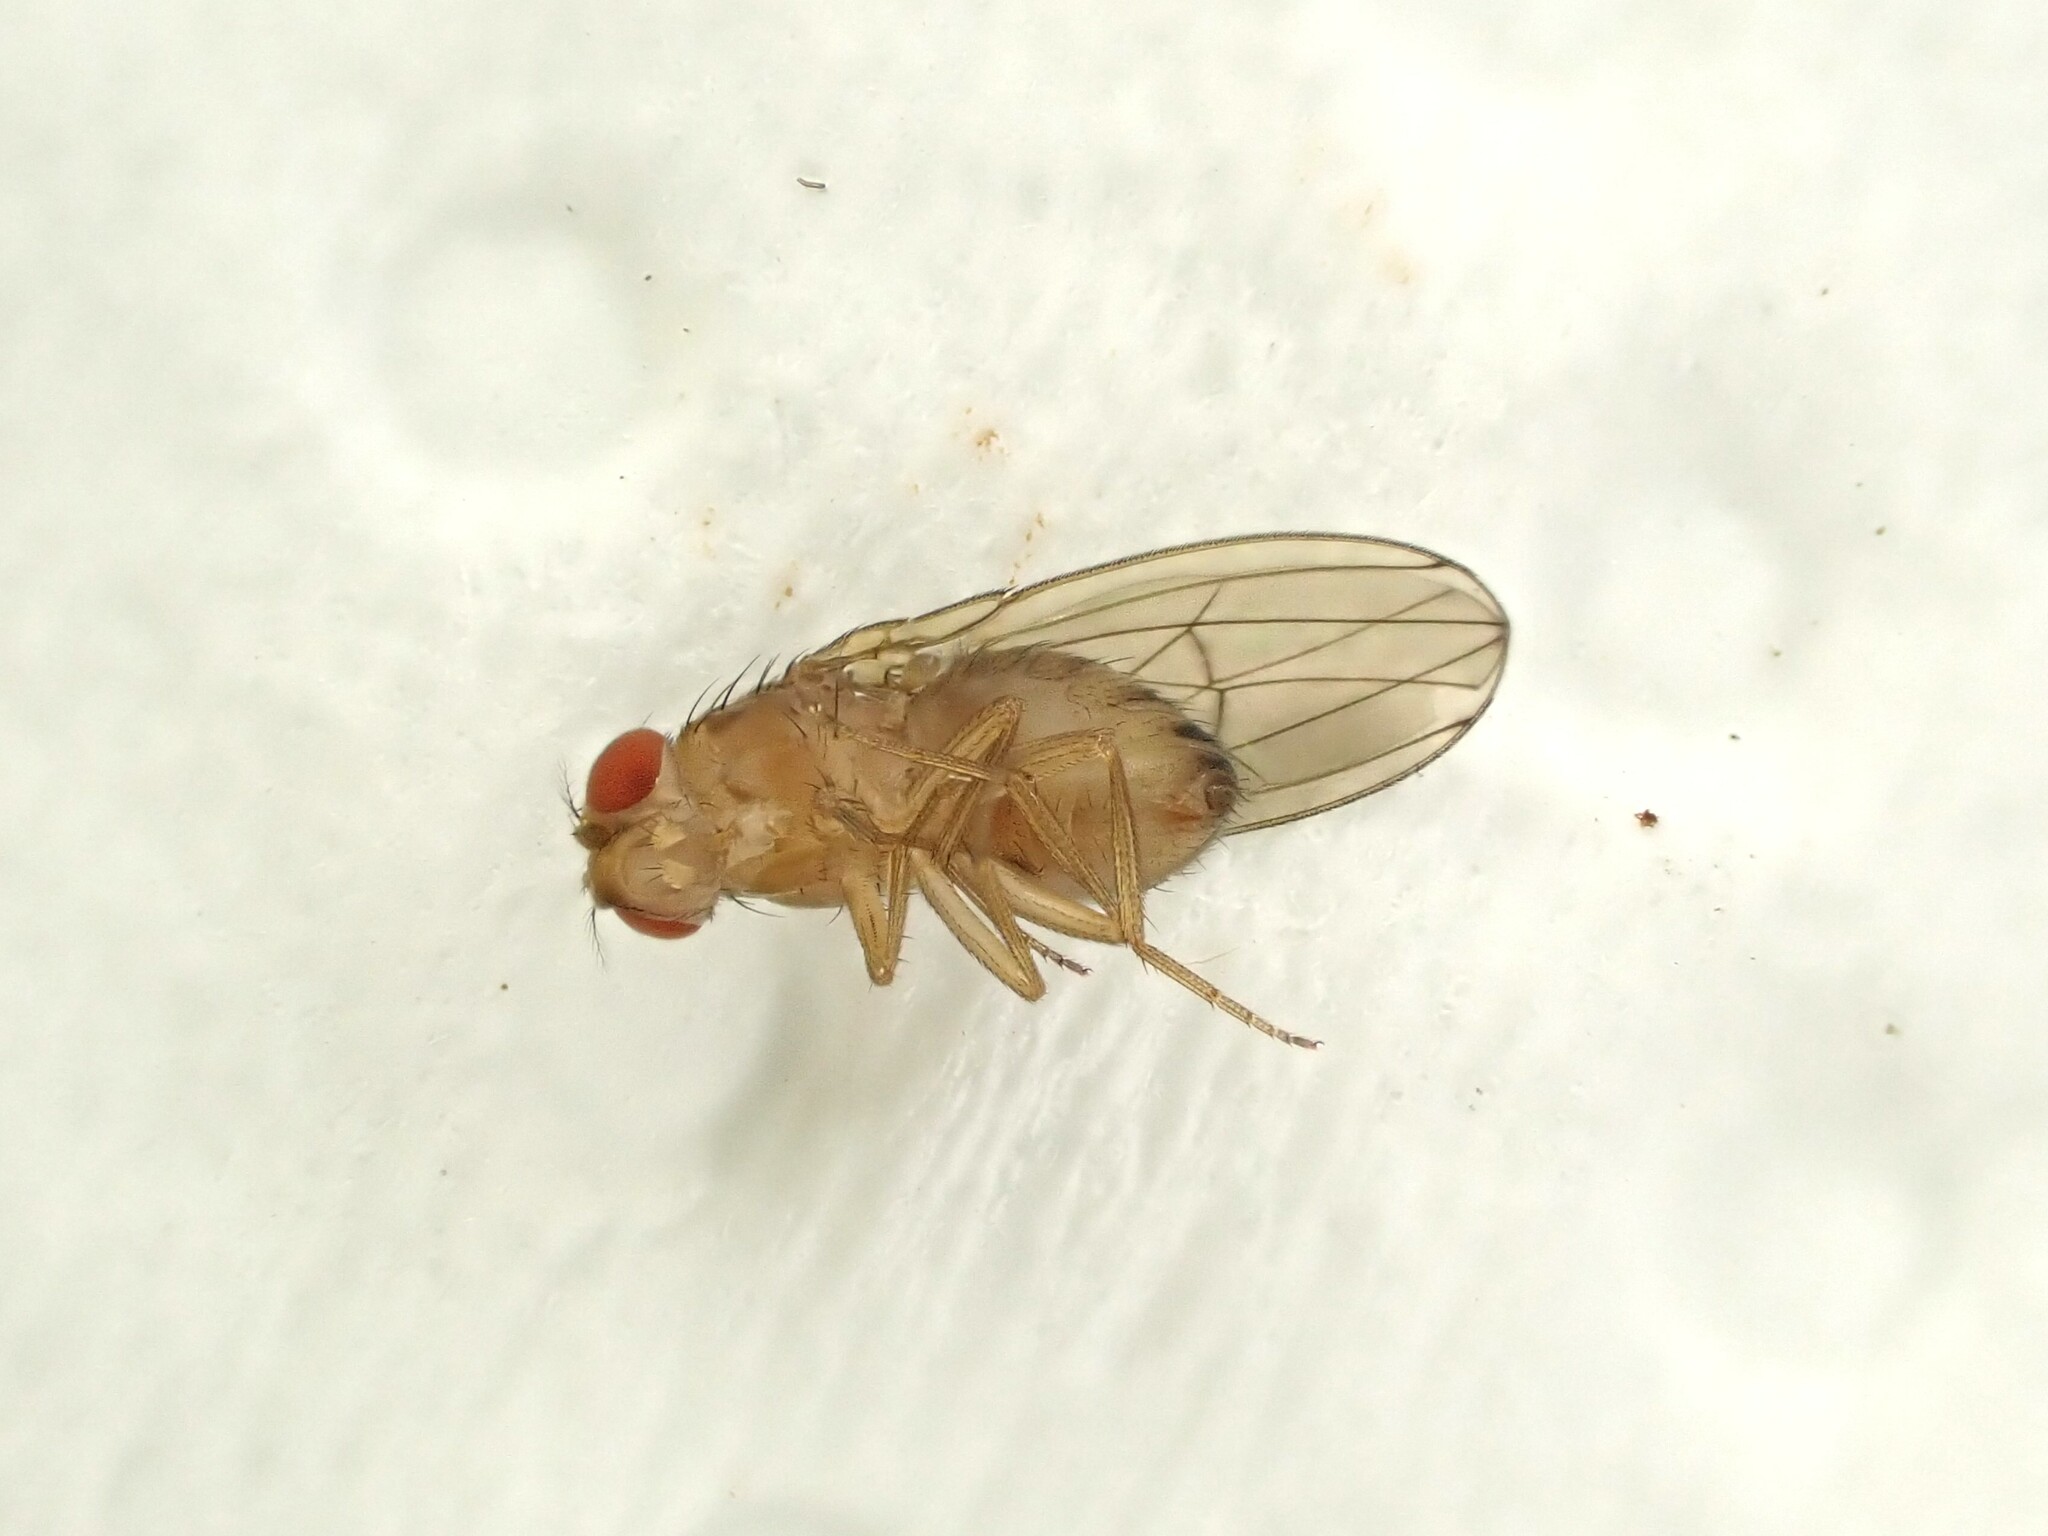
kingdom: Animalia
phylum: Arthropoda
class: Insecta
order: Diptera
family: Drosophilidae
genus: Drosophila
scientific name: Drosophila immigrans
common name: Pomace fly
